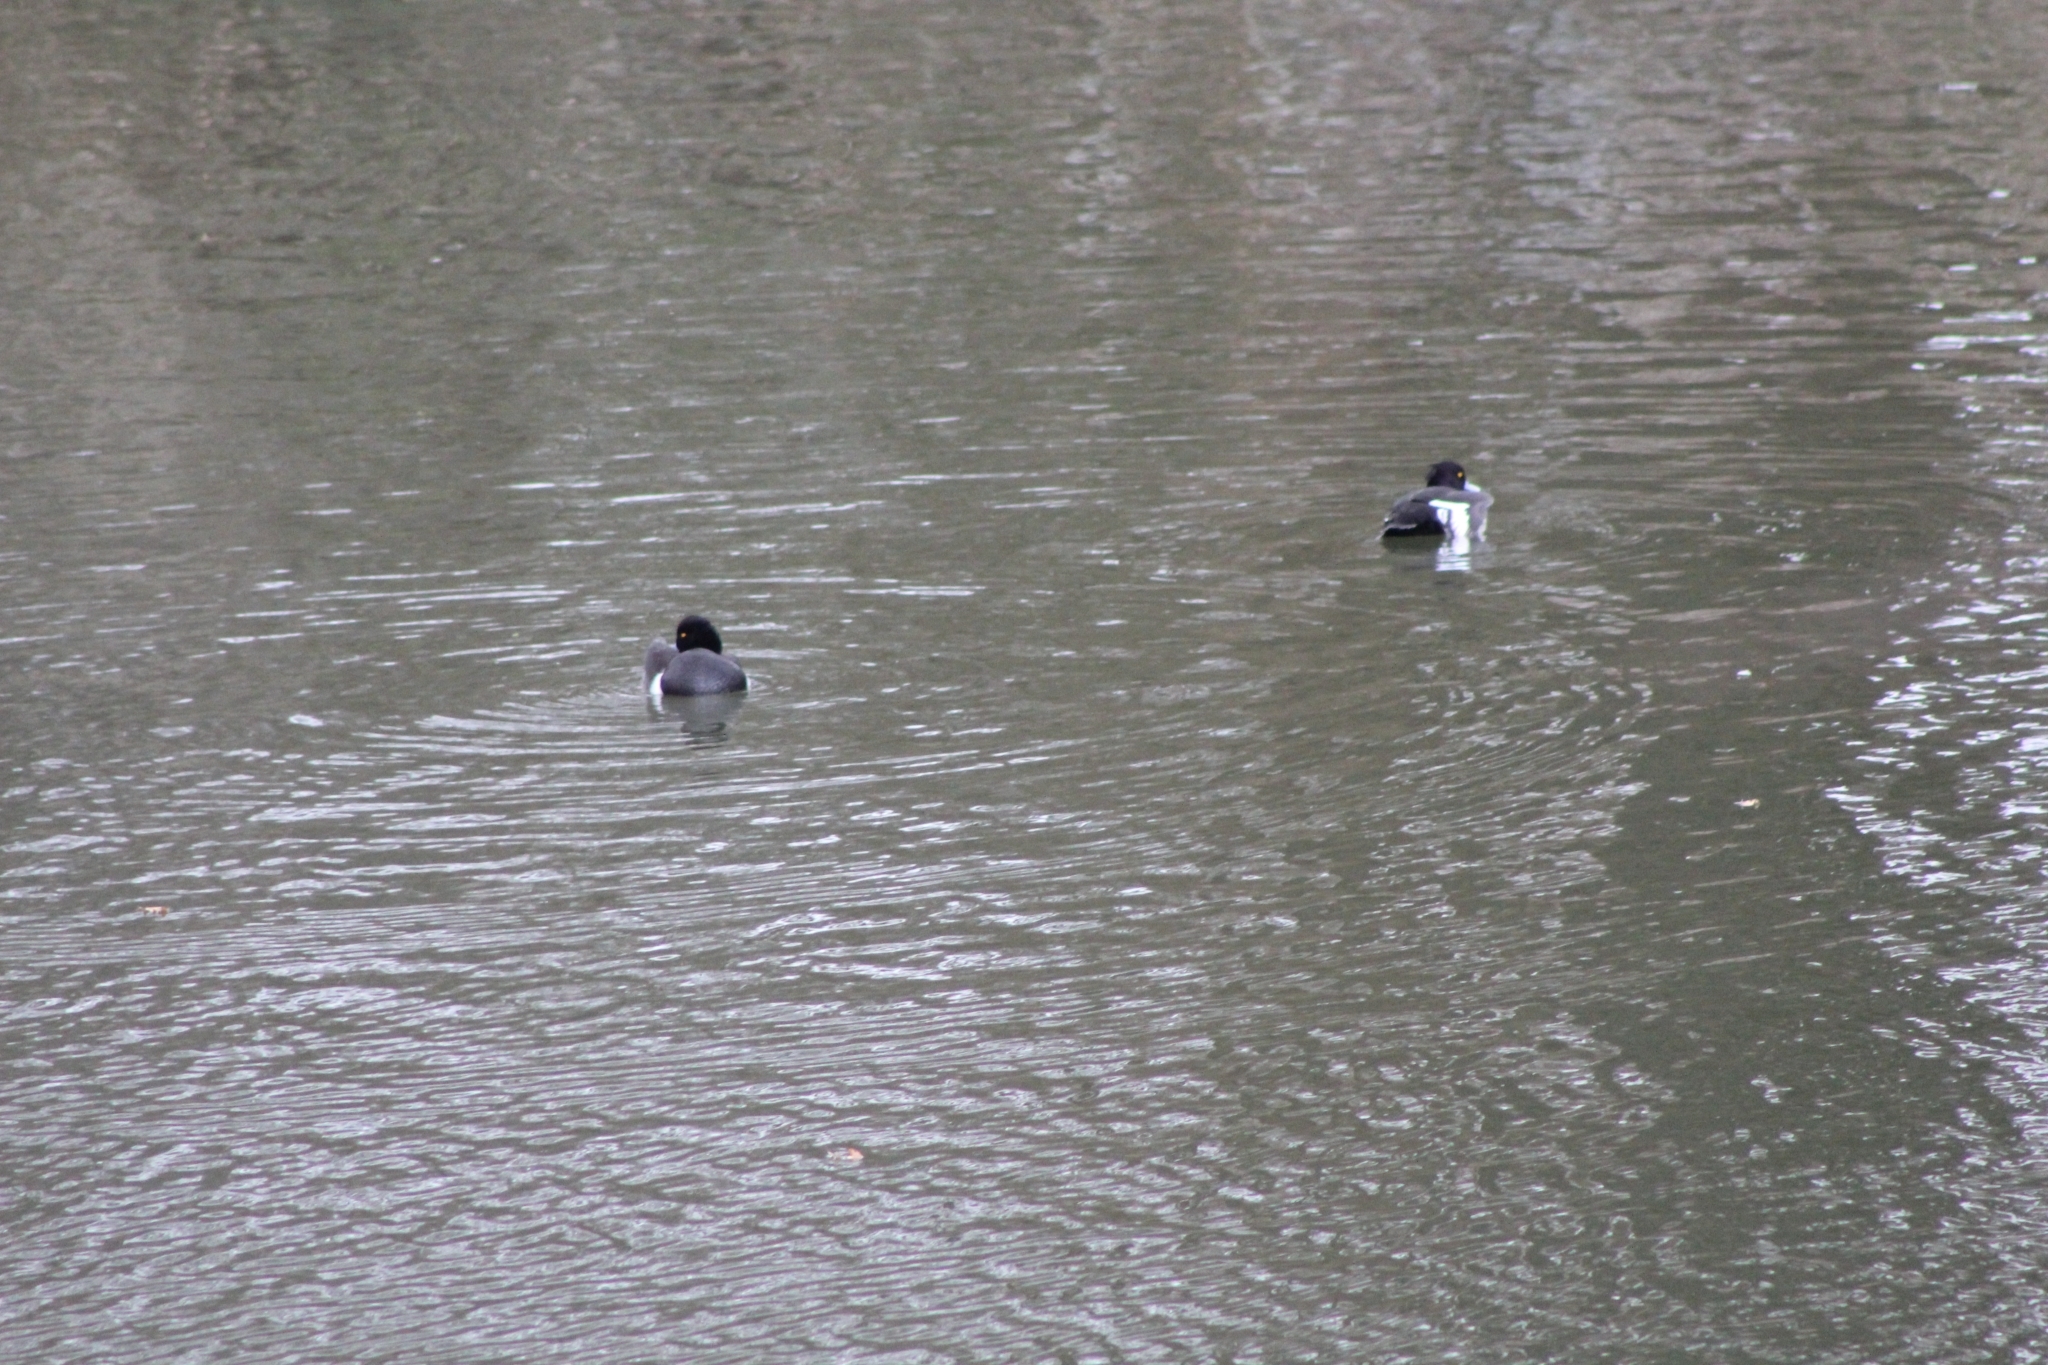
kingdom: Animalia
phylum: Chordata
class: Aves
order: Anseriformes
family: Anatidae
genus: Aythya
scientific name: Aythya fuligula
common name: Tufted duck
